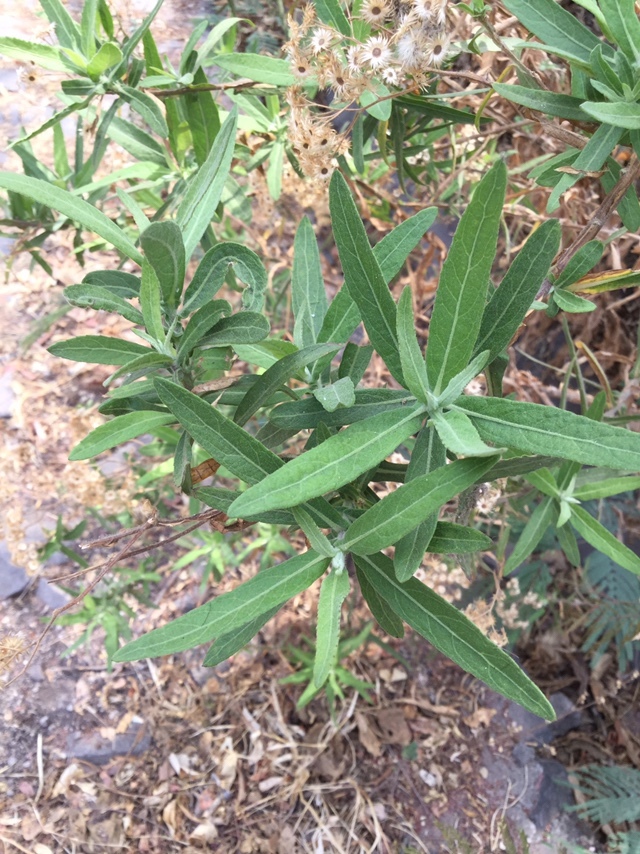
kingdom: Plantae
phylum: Tracheophyta
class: Magnoliopsida
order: Asterales
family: Asteraceae
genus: Pluchea
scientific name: Pluchea salicifolia
